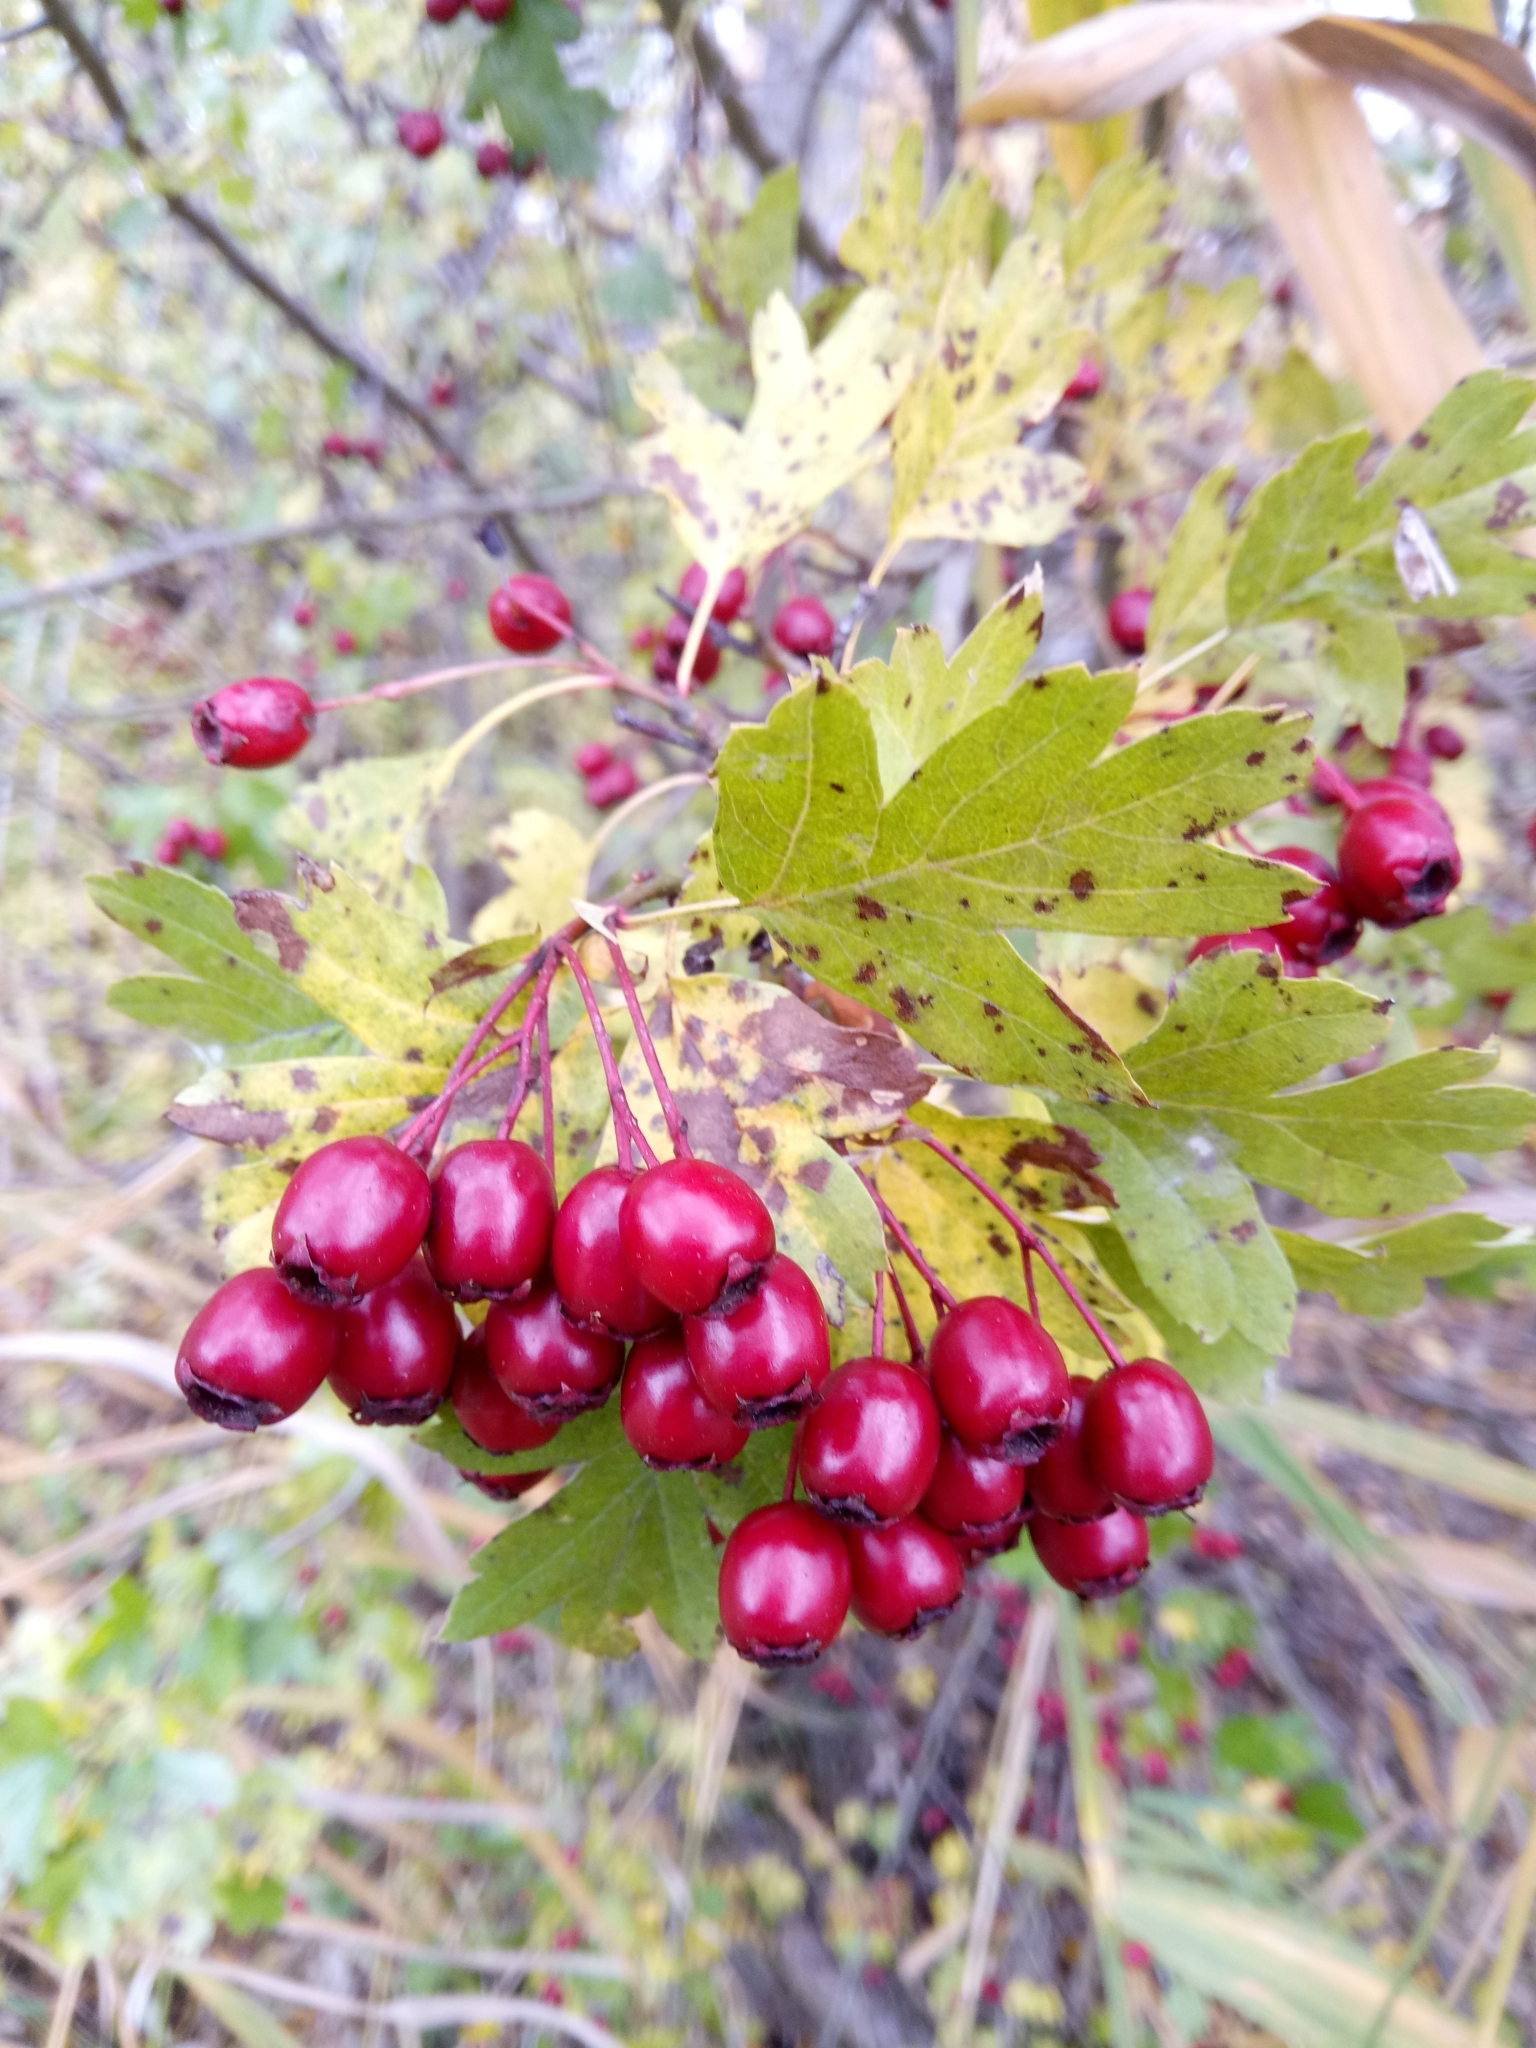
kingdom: Plantae
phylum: Tracheophyta
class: Magnoliopsida
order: Rosales
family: Rosaceae
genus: Crataegus
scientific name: Crataegus monogyna
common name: Hawthorn
